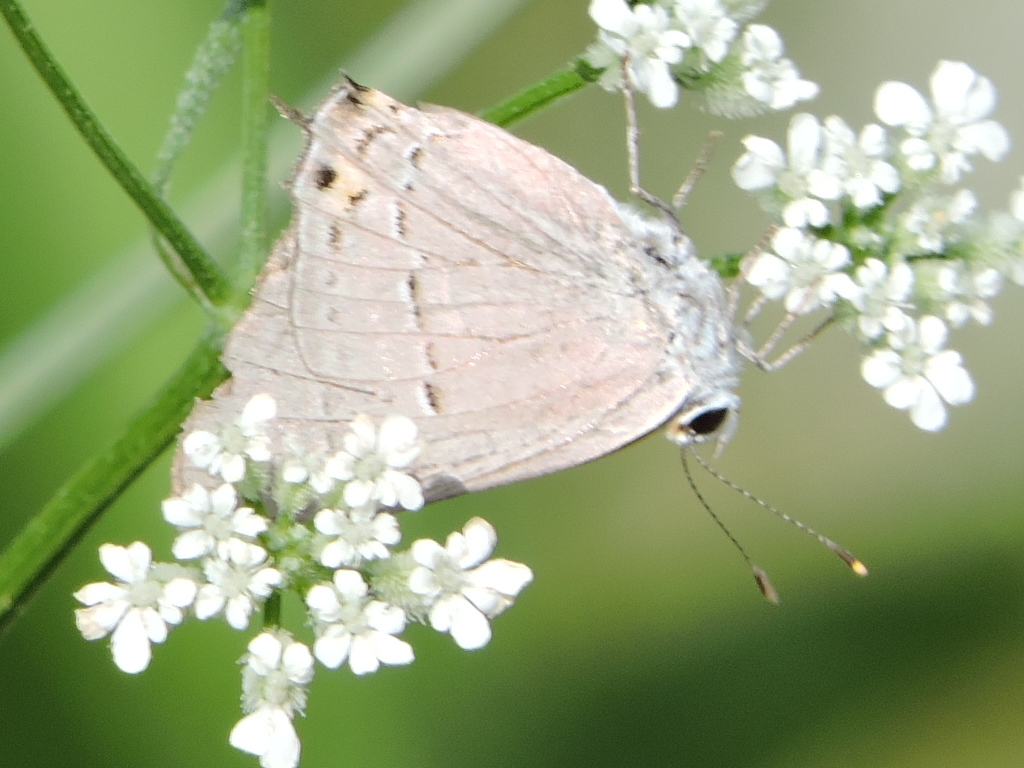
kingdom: Animalia
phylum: Arthropoda
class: Insecta
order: Lepidoptera
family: Lycaenidae
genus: Strymon
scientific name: Strymon melinus
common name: Gray hairstreak
